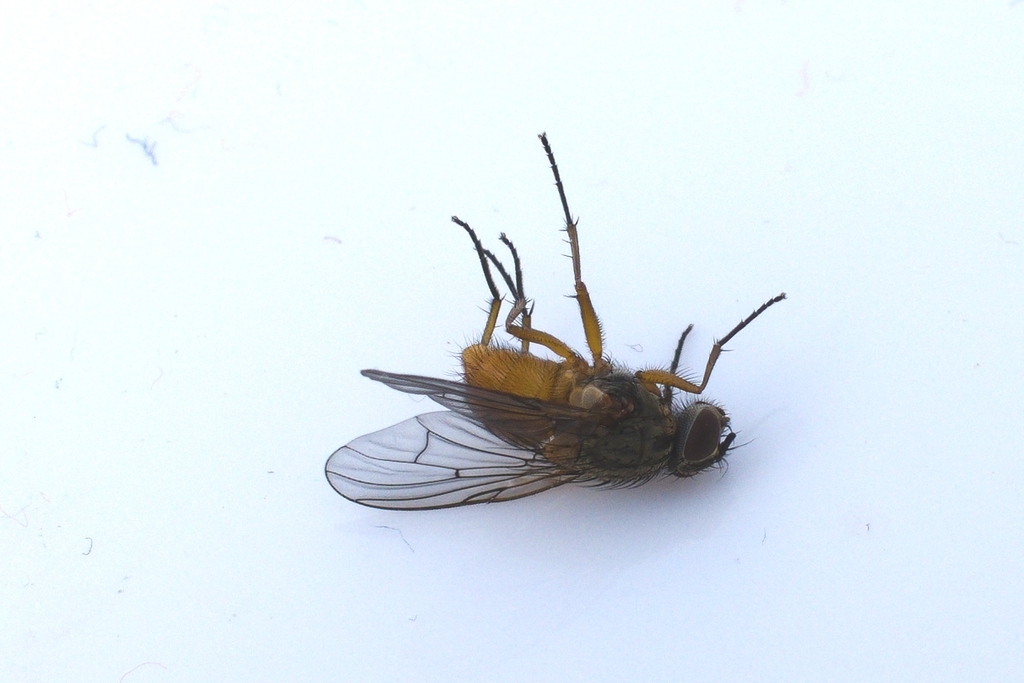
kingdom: Animalia
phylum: Arthropoda
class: Insecta
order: Diptera
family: Muscidae
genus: Phaonia
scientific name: Phaonia subventa
